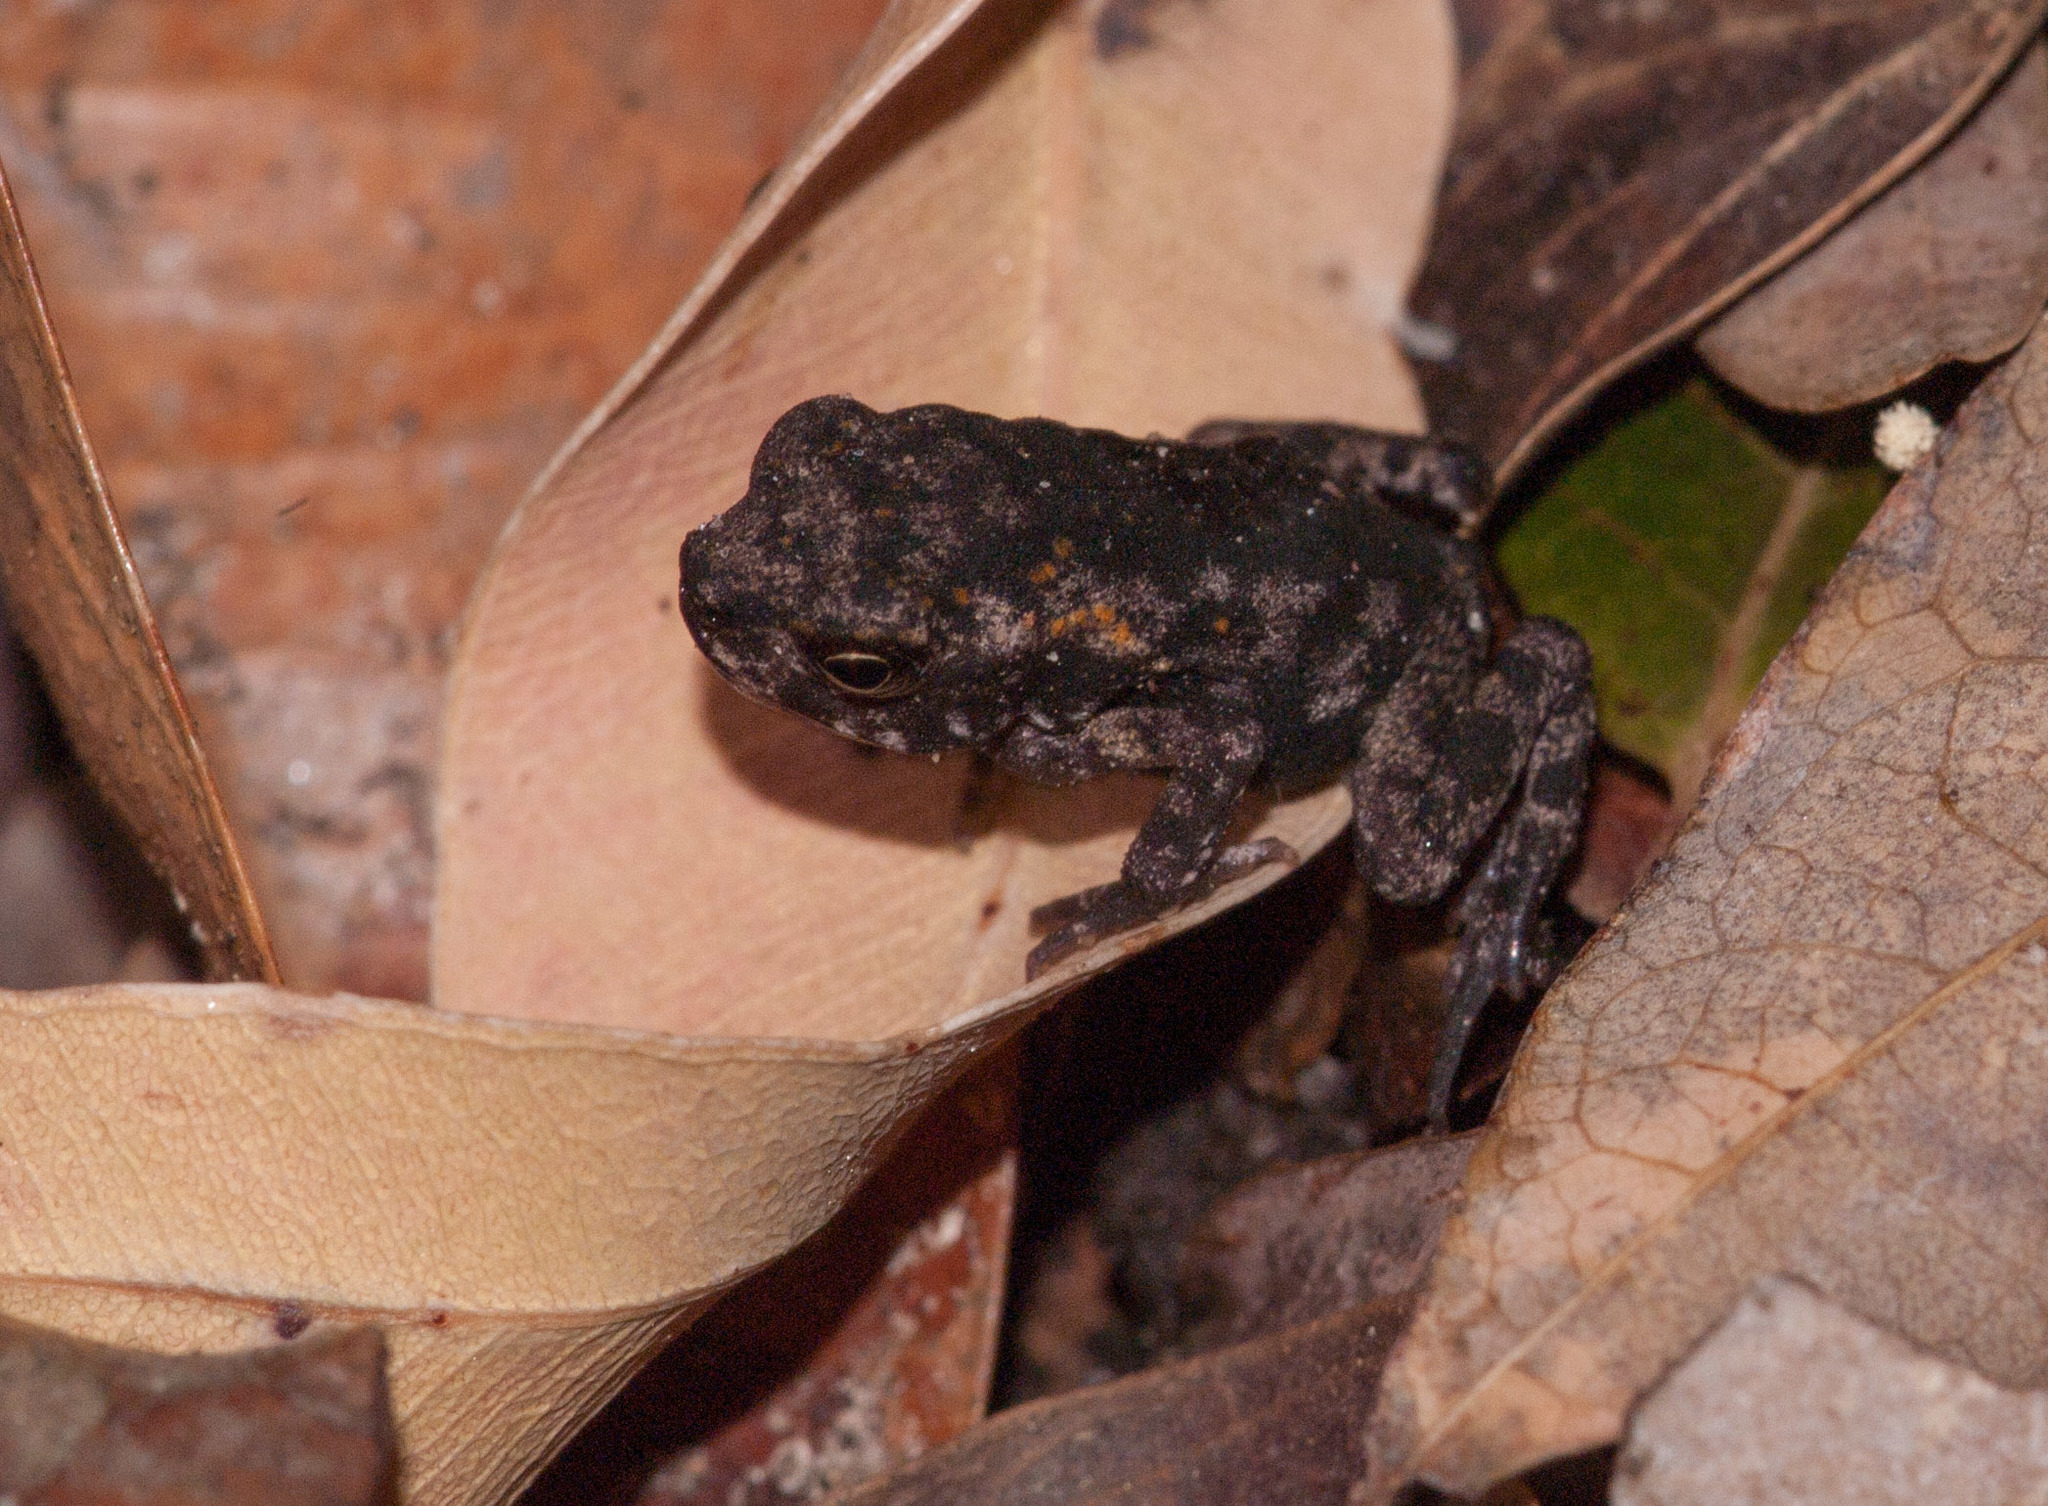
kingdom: Animalia
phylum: Chordata
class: Amphibia
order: Anura
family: Bufonidae
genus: Rhinella
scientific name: Rhinella marina
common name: Cane toad
